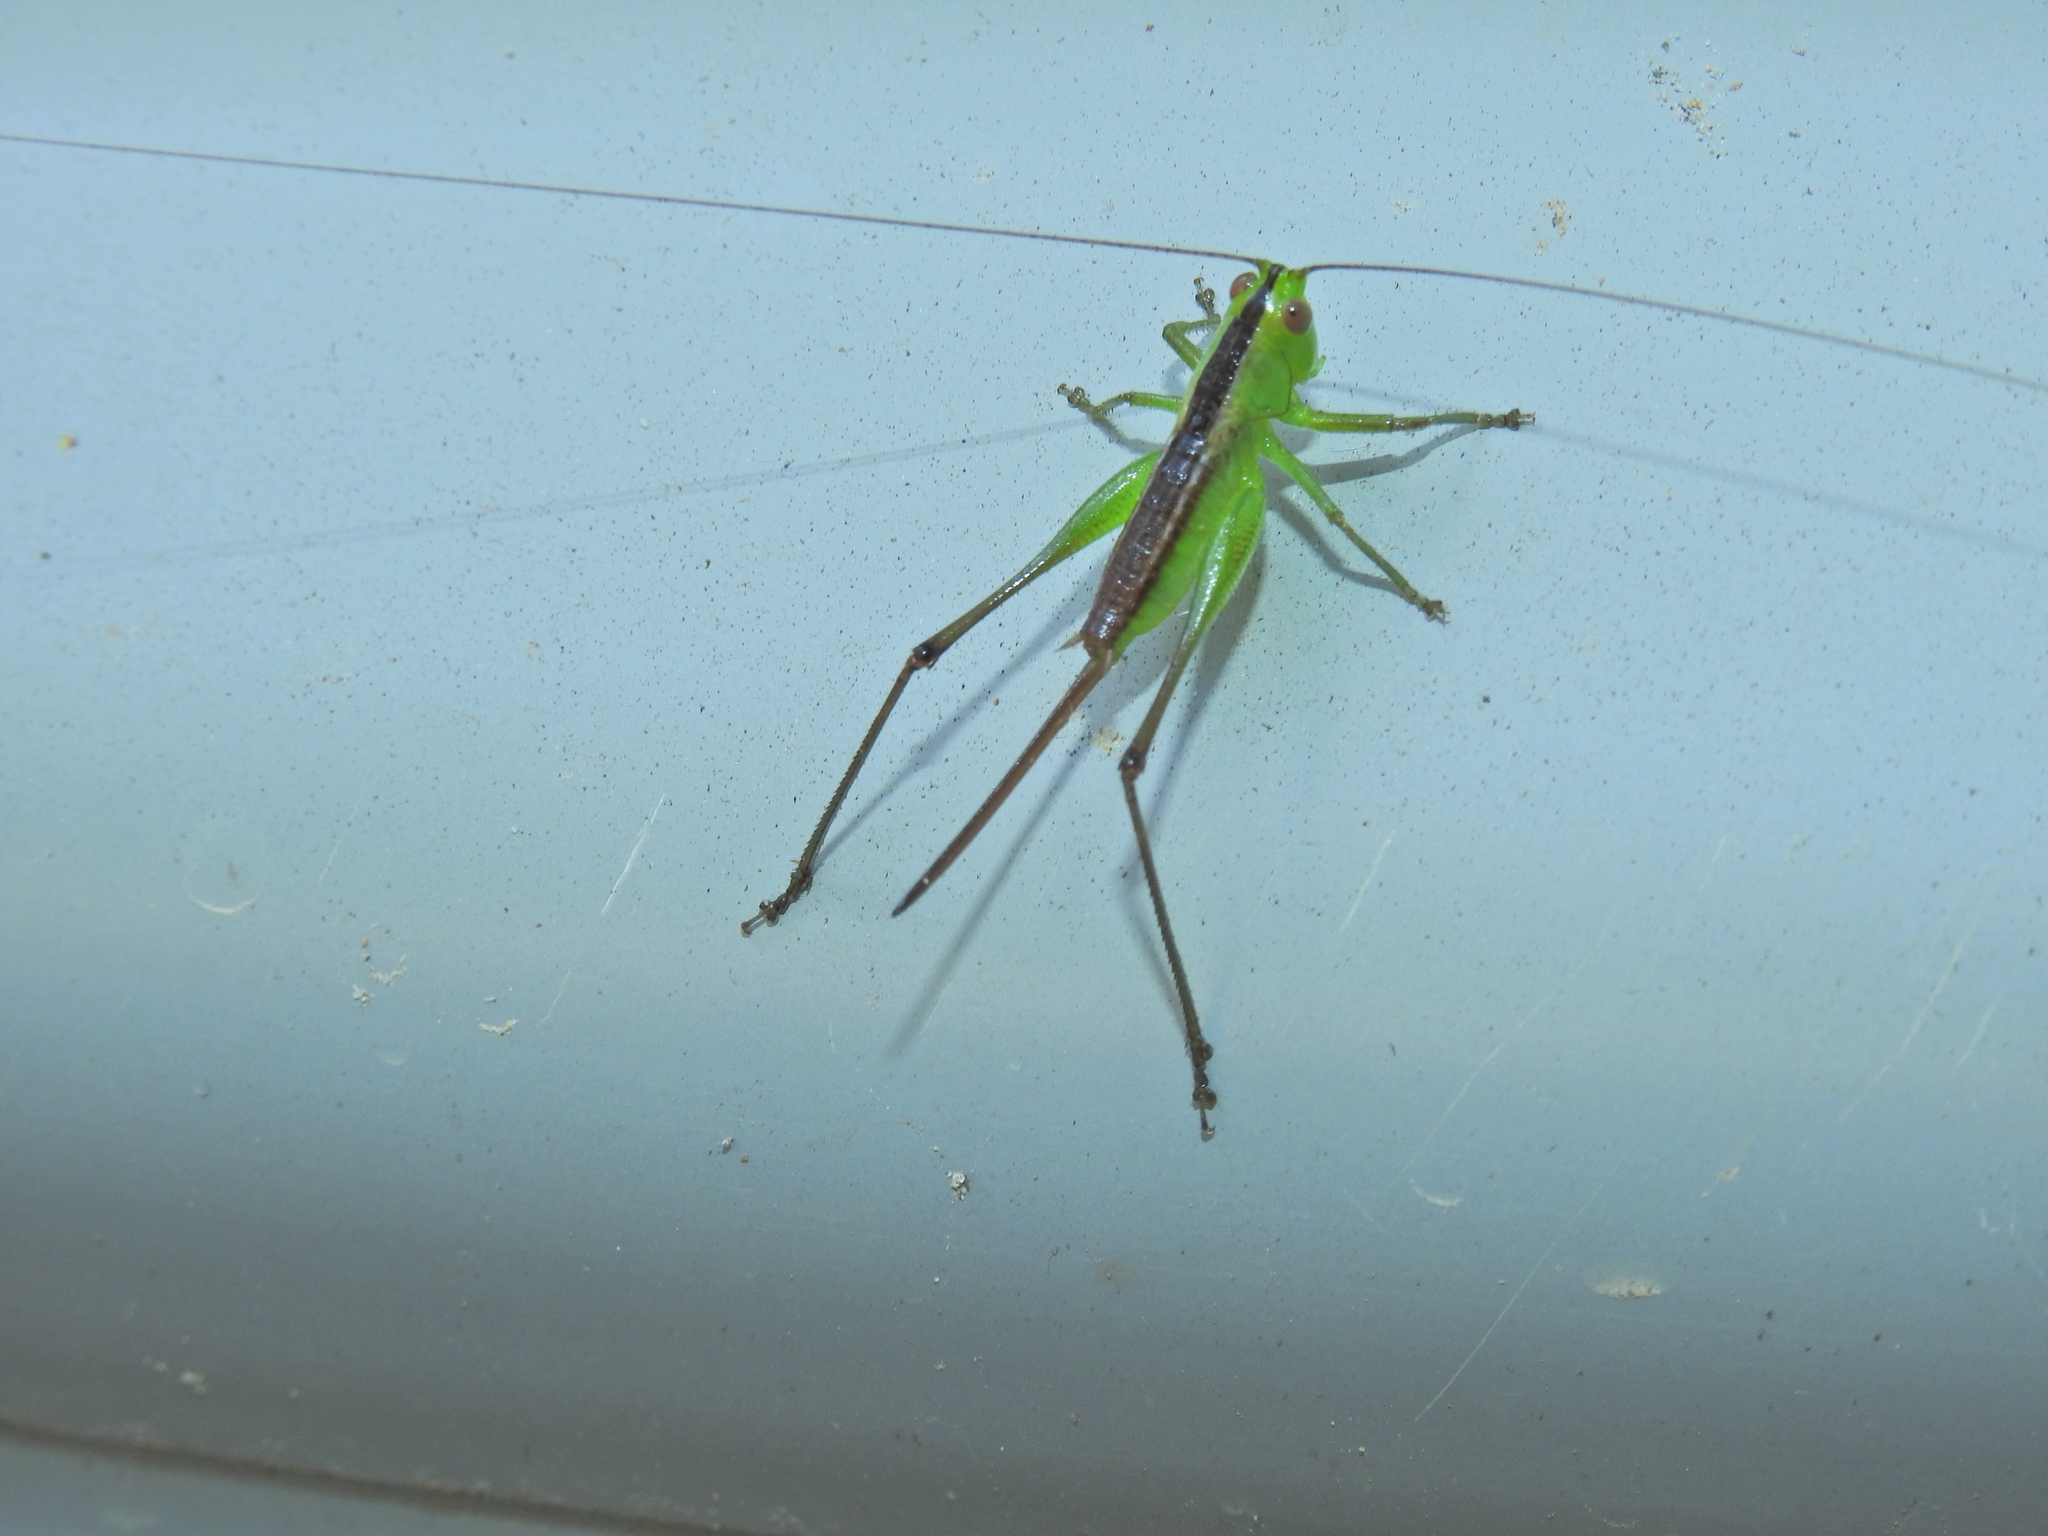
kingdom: Animalia
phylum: Arthropoda
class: Insecta
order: Orthoptera
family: Tettigoniidae
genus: Conocephalus
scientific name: Conocephalus semivittatus
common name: Blackish meadow katydid
